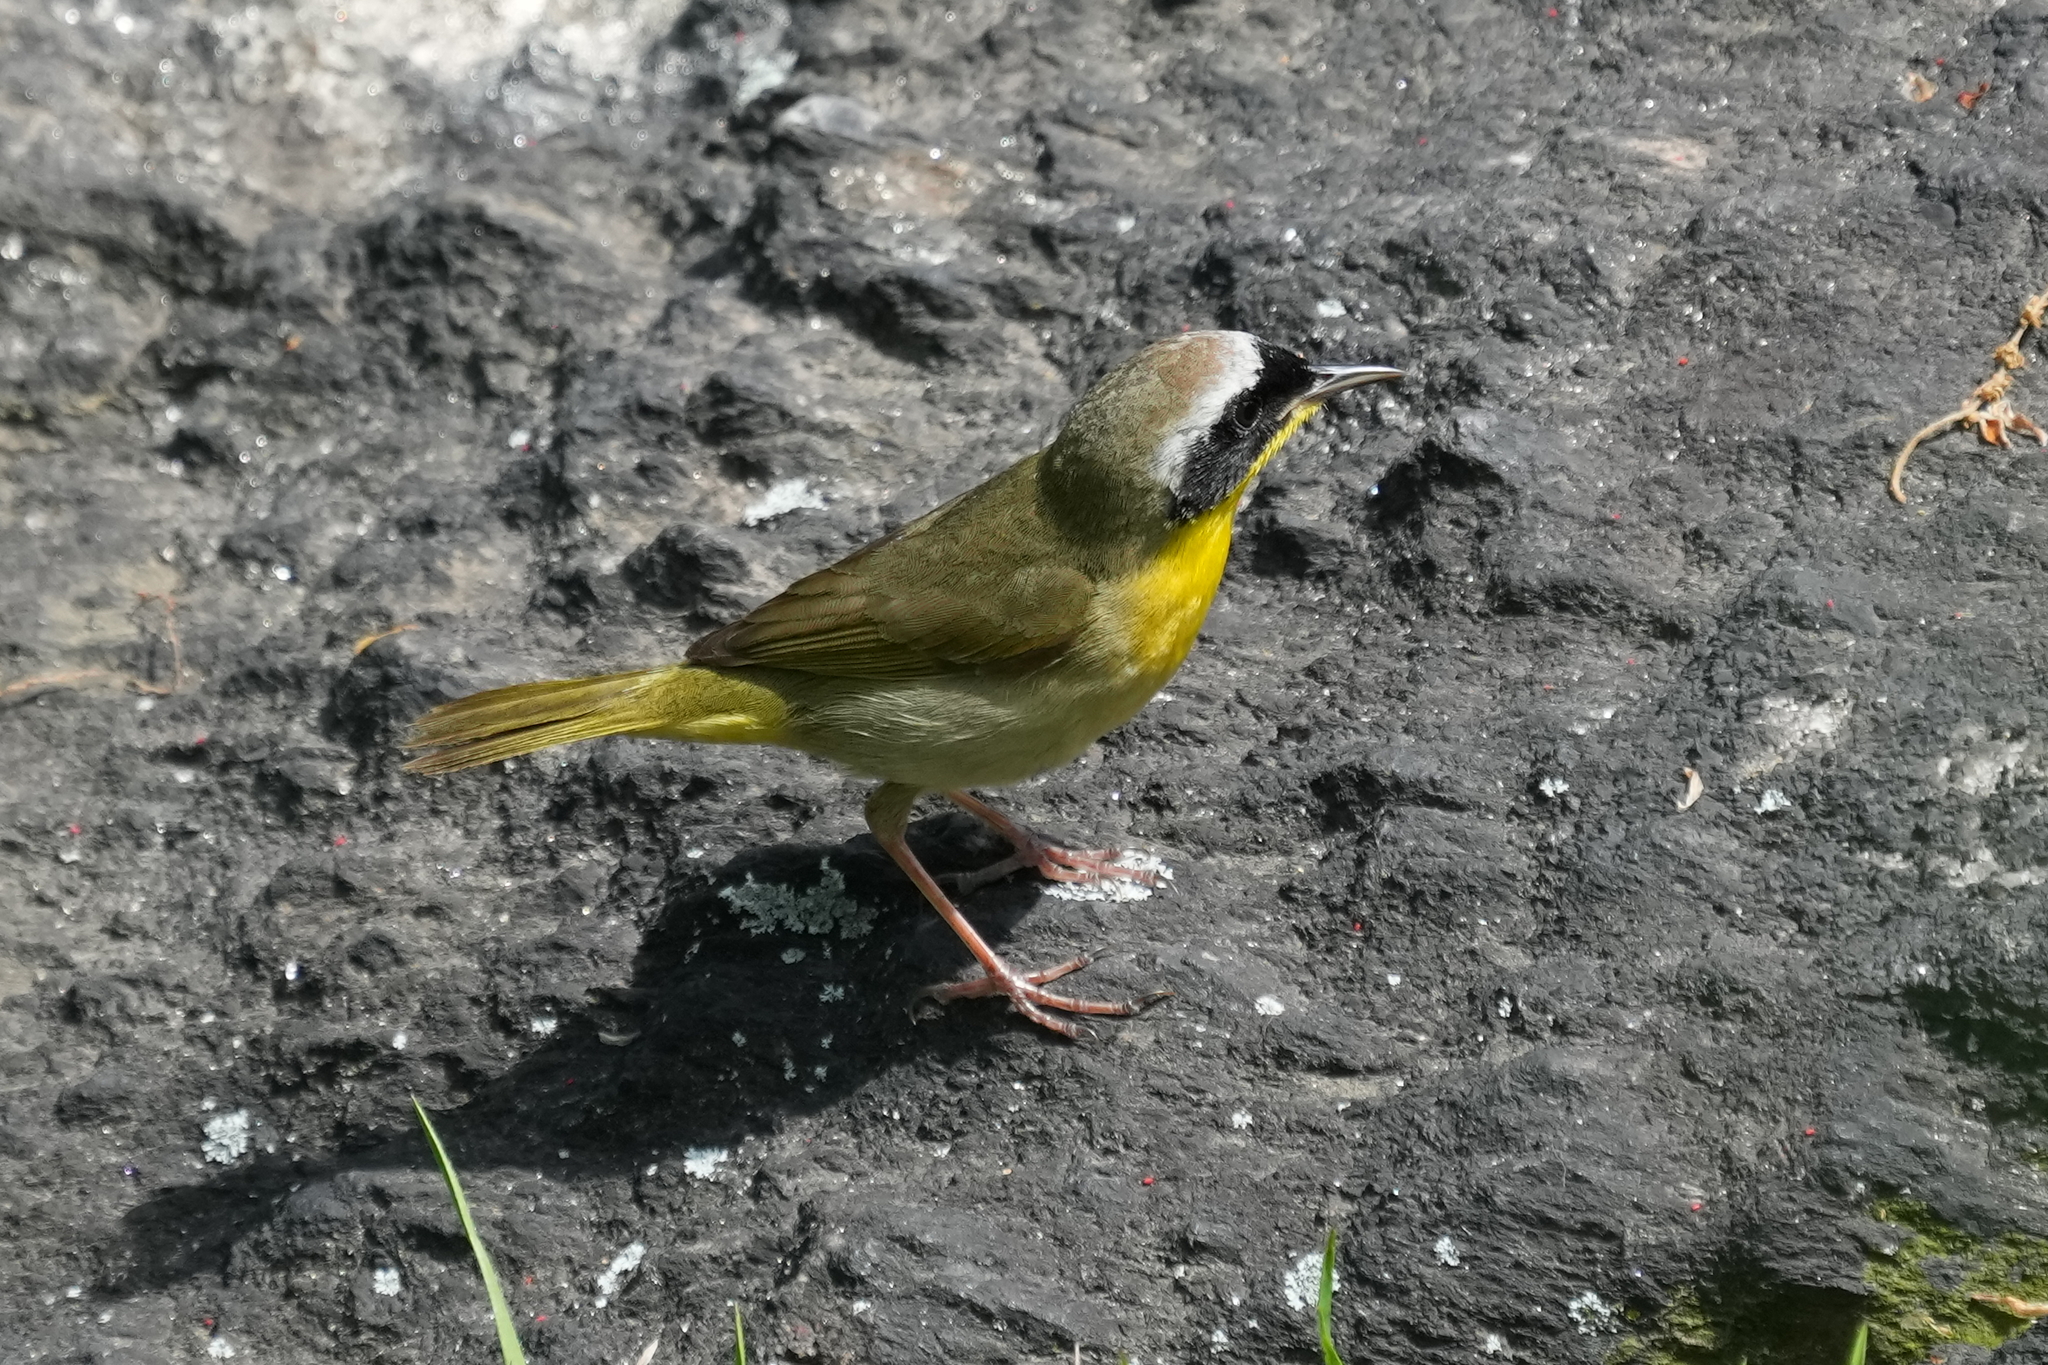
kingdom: Animalia
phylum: Chordata
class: Aves
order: Passeriformes
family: Parulidae
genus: Geothlypis
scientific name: Geothlypis trichas
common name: Common yellowthroat
